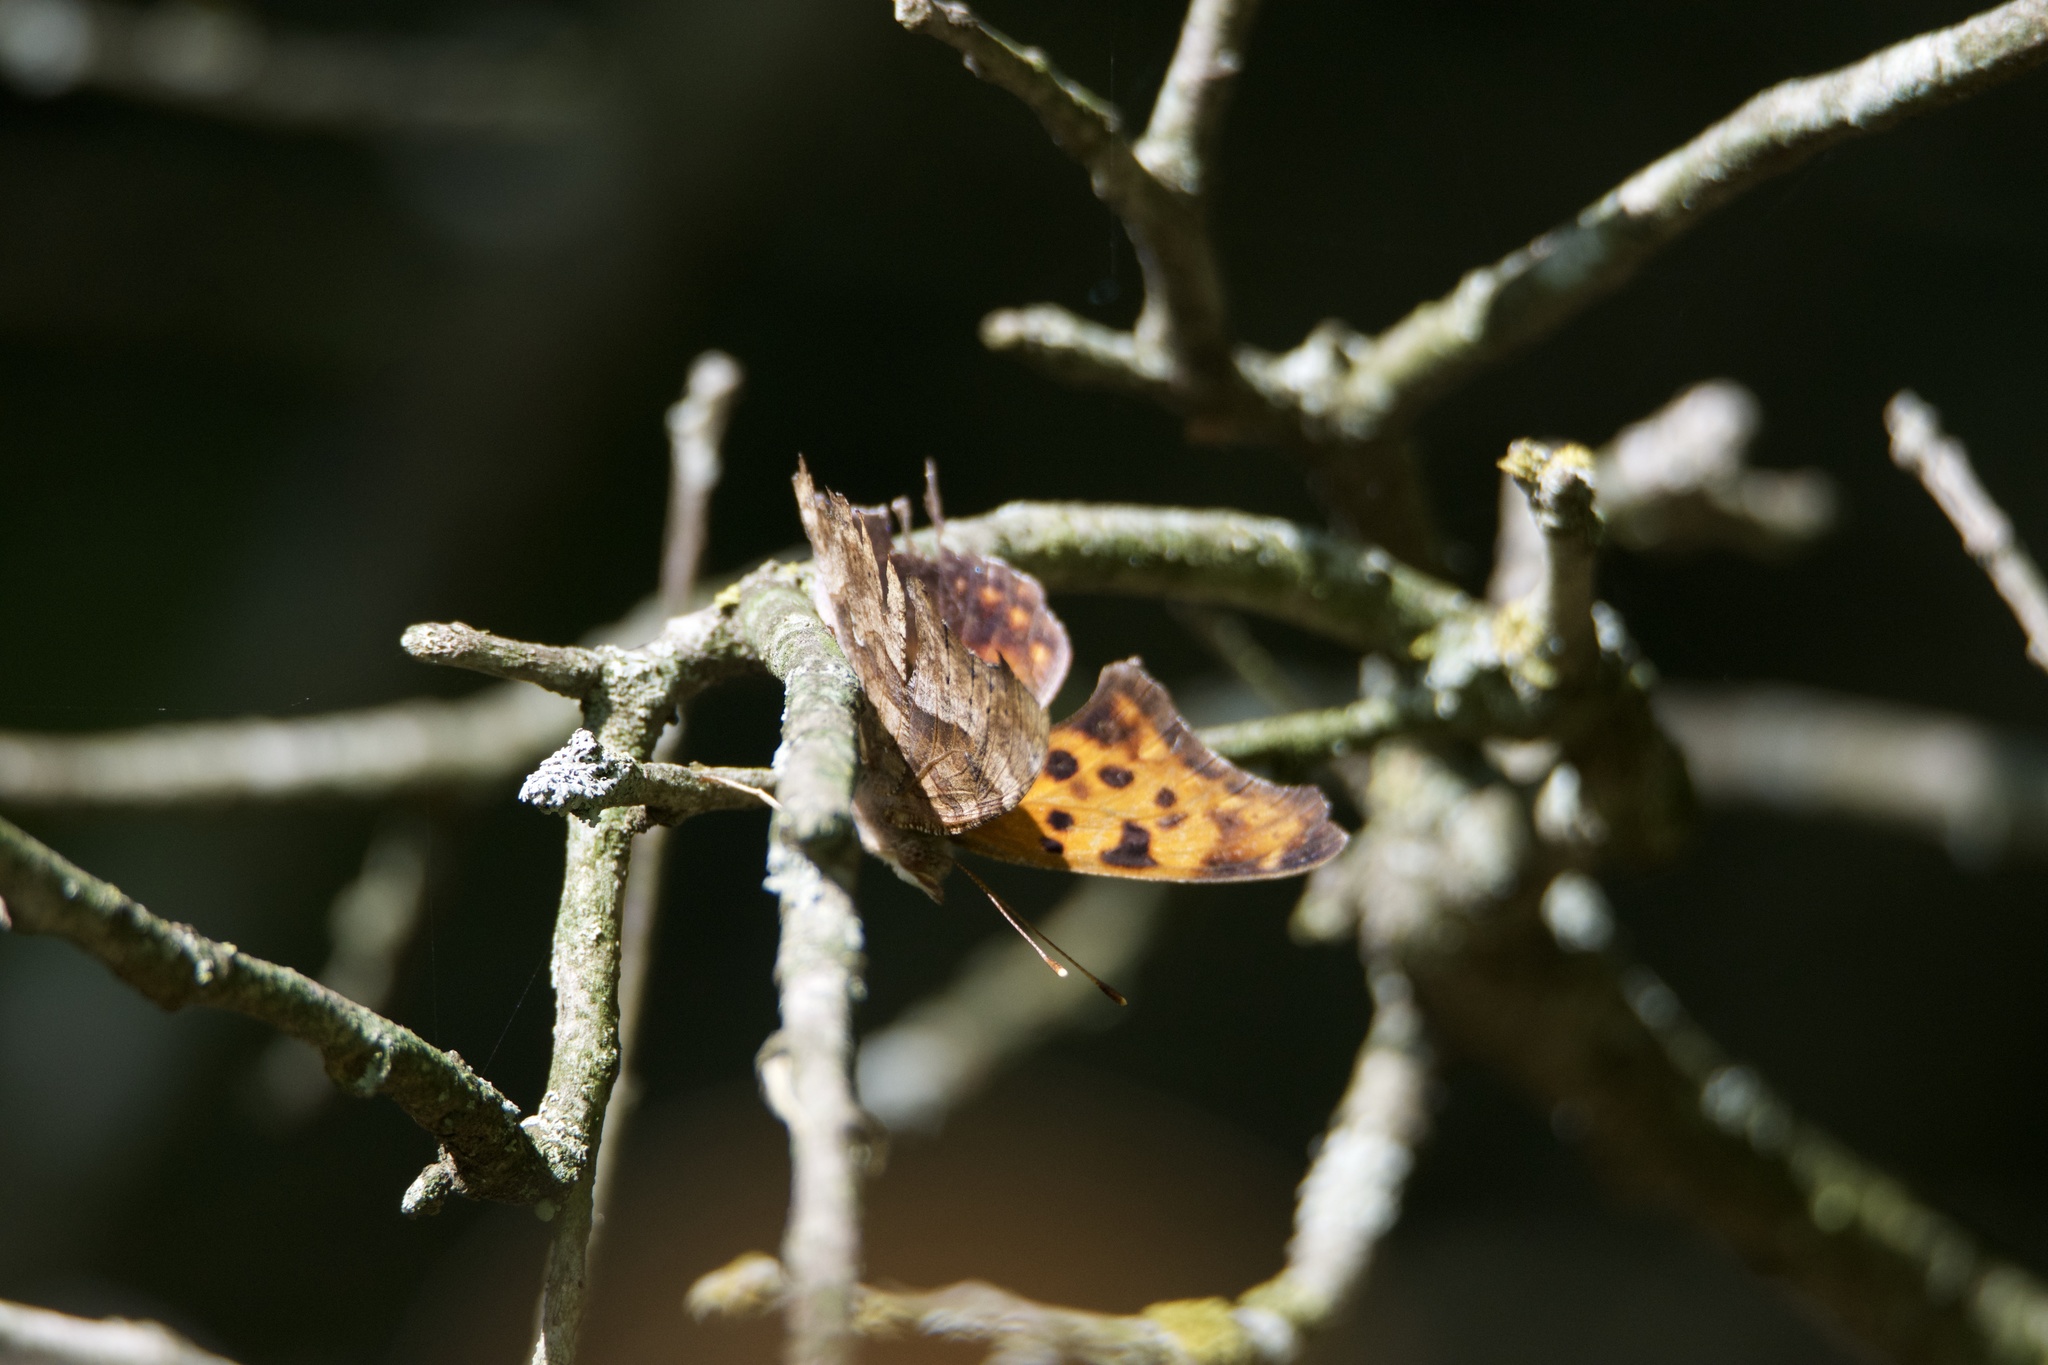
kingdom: Animalia
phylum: Arthropoda
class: Insecta
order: Lepidoptera
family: Nymphalidae
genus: Polygonia
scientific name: Polygonia interrogationis
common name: Question mark
